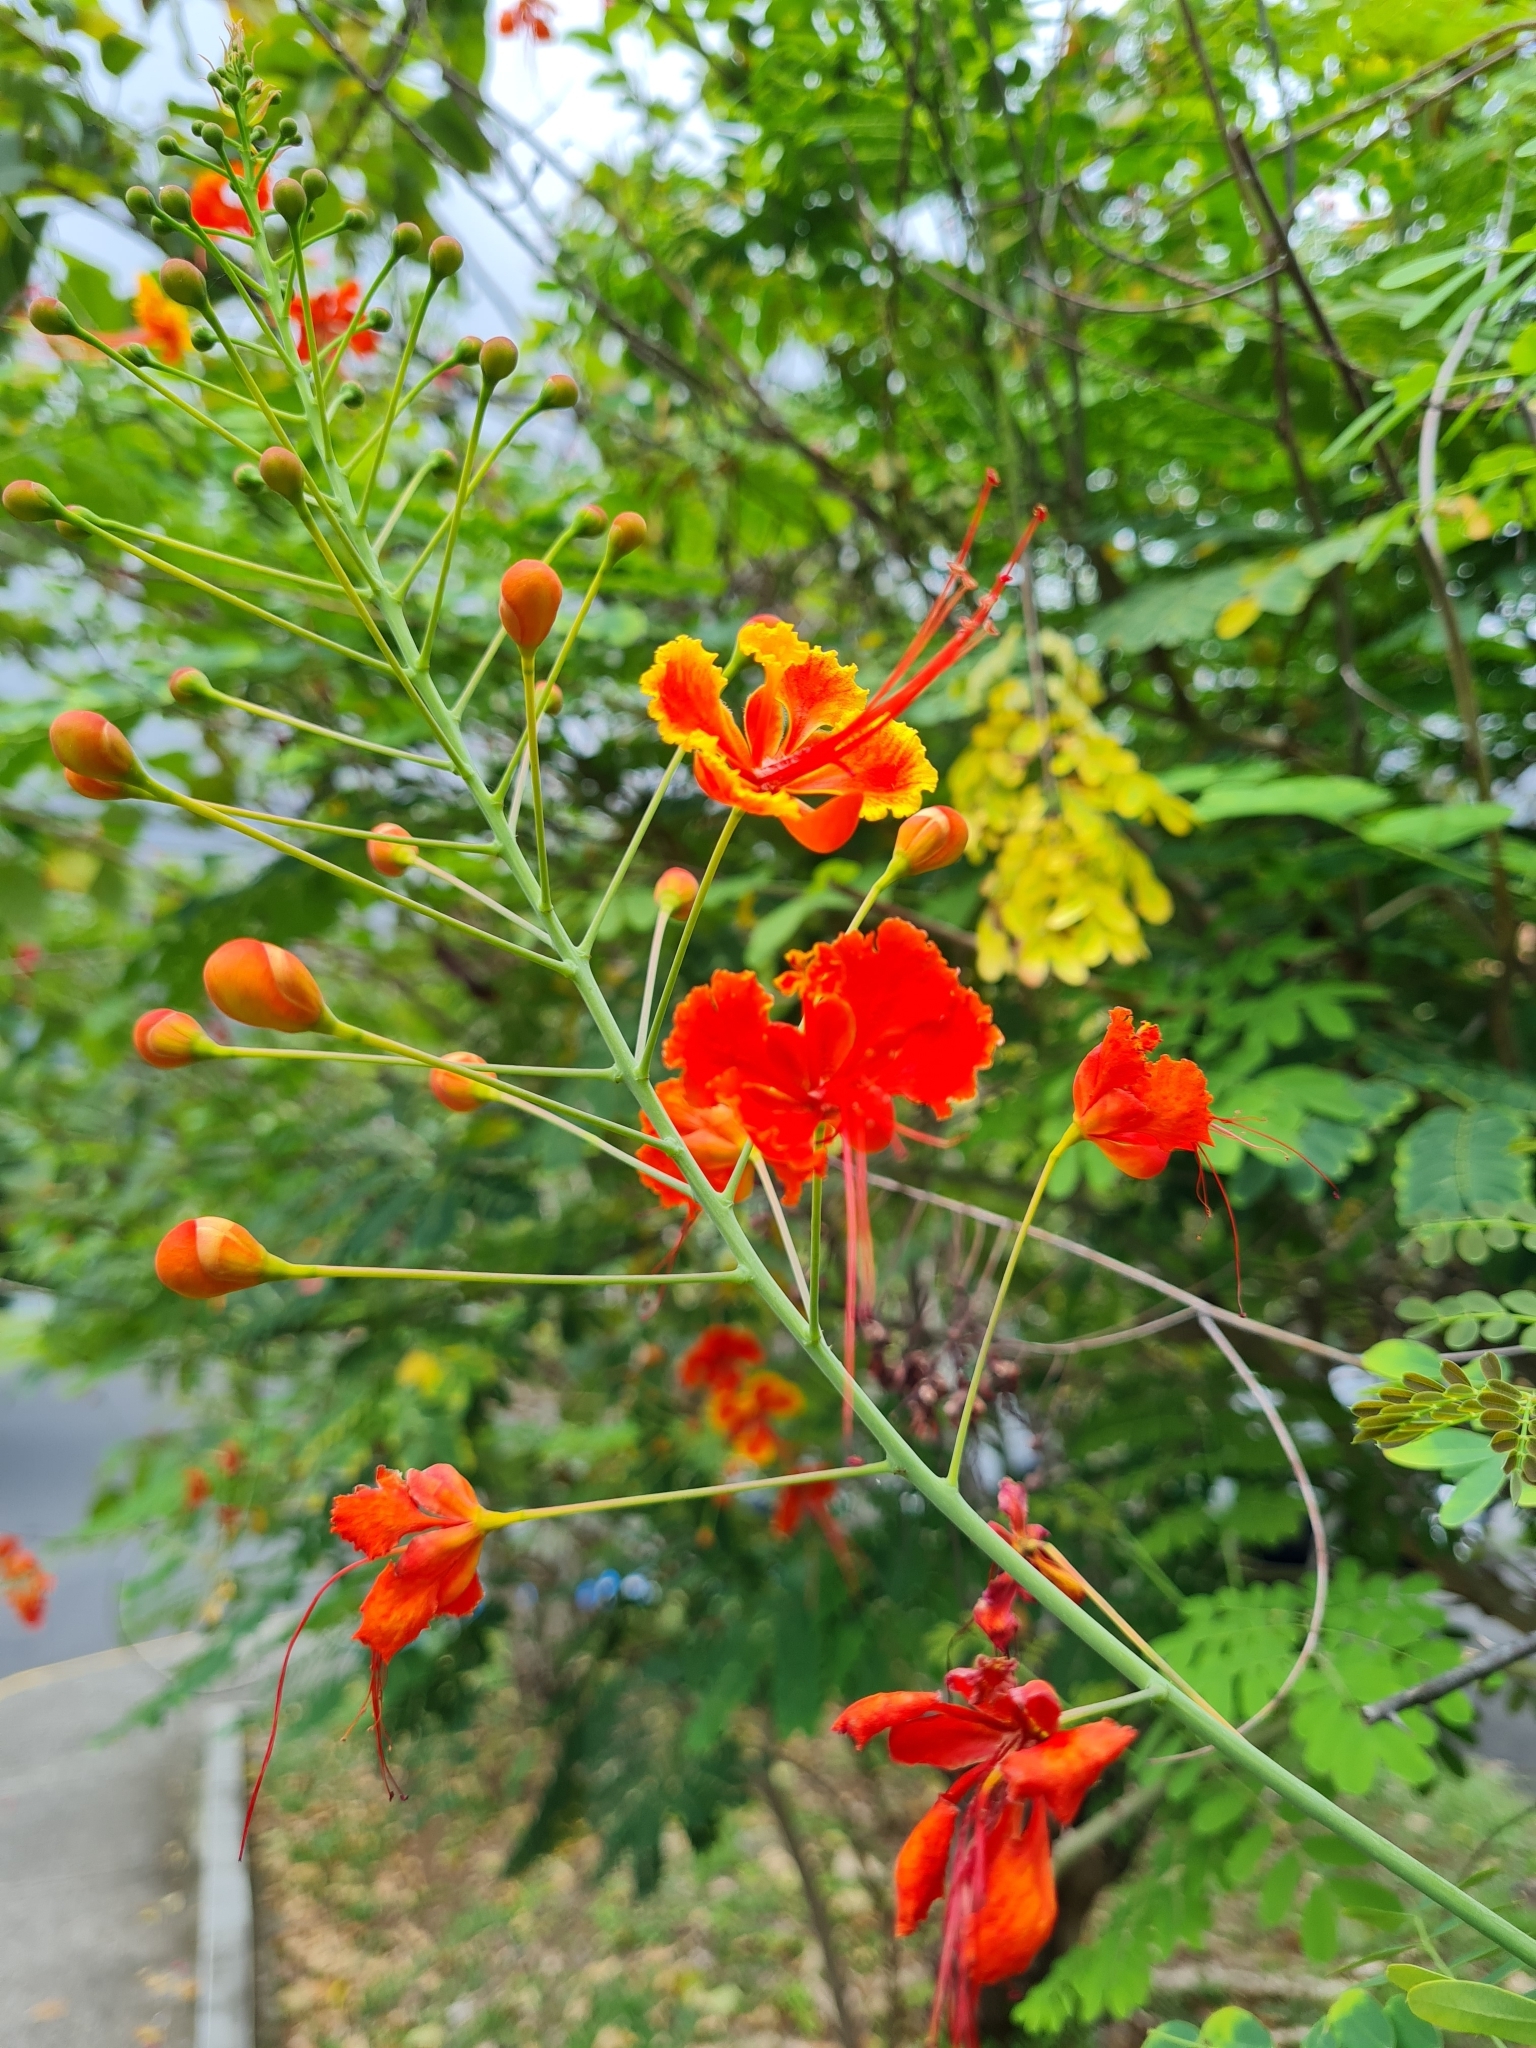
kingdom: Plantae
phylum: Tracheophyta
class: Magnoliopsida
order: Fabales
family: Fabaceae
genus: Caesalpinia
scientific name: Caesalpinia pulcherrima
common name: Pride-of-barbados
